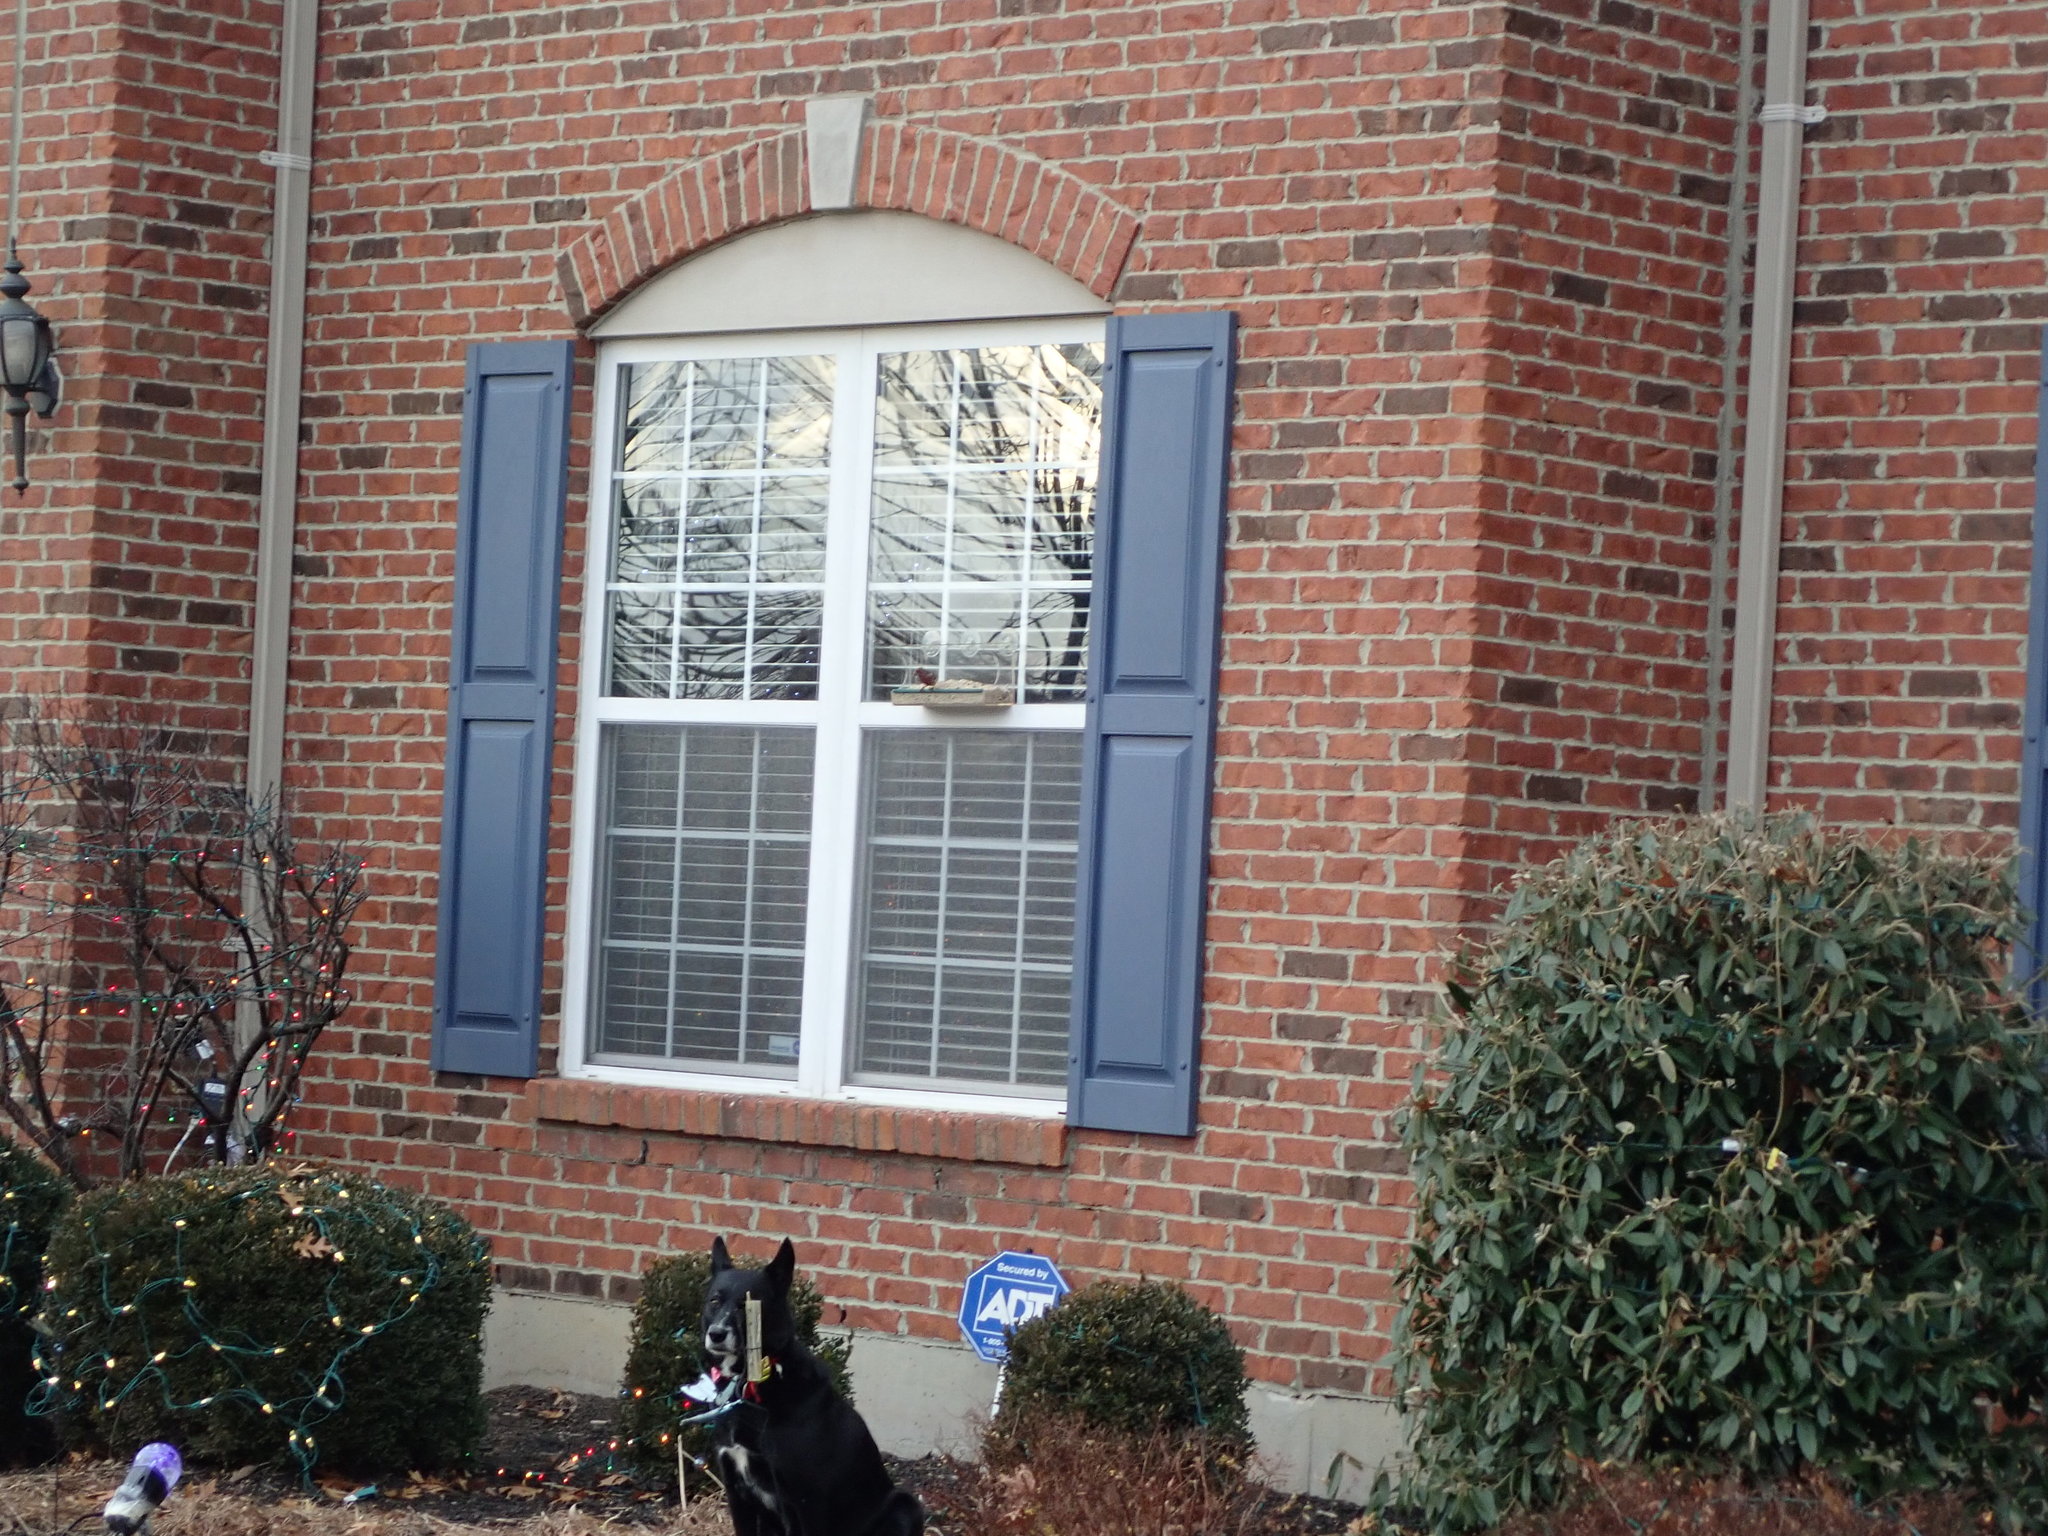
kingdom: Animalia
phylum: Chordata
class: Aves
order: Passeriformes
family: Fringillidae
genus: Haemorhous
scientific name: Haemorhous mexicanus
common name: House finch
